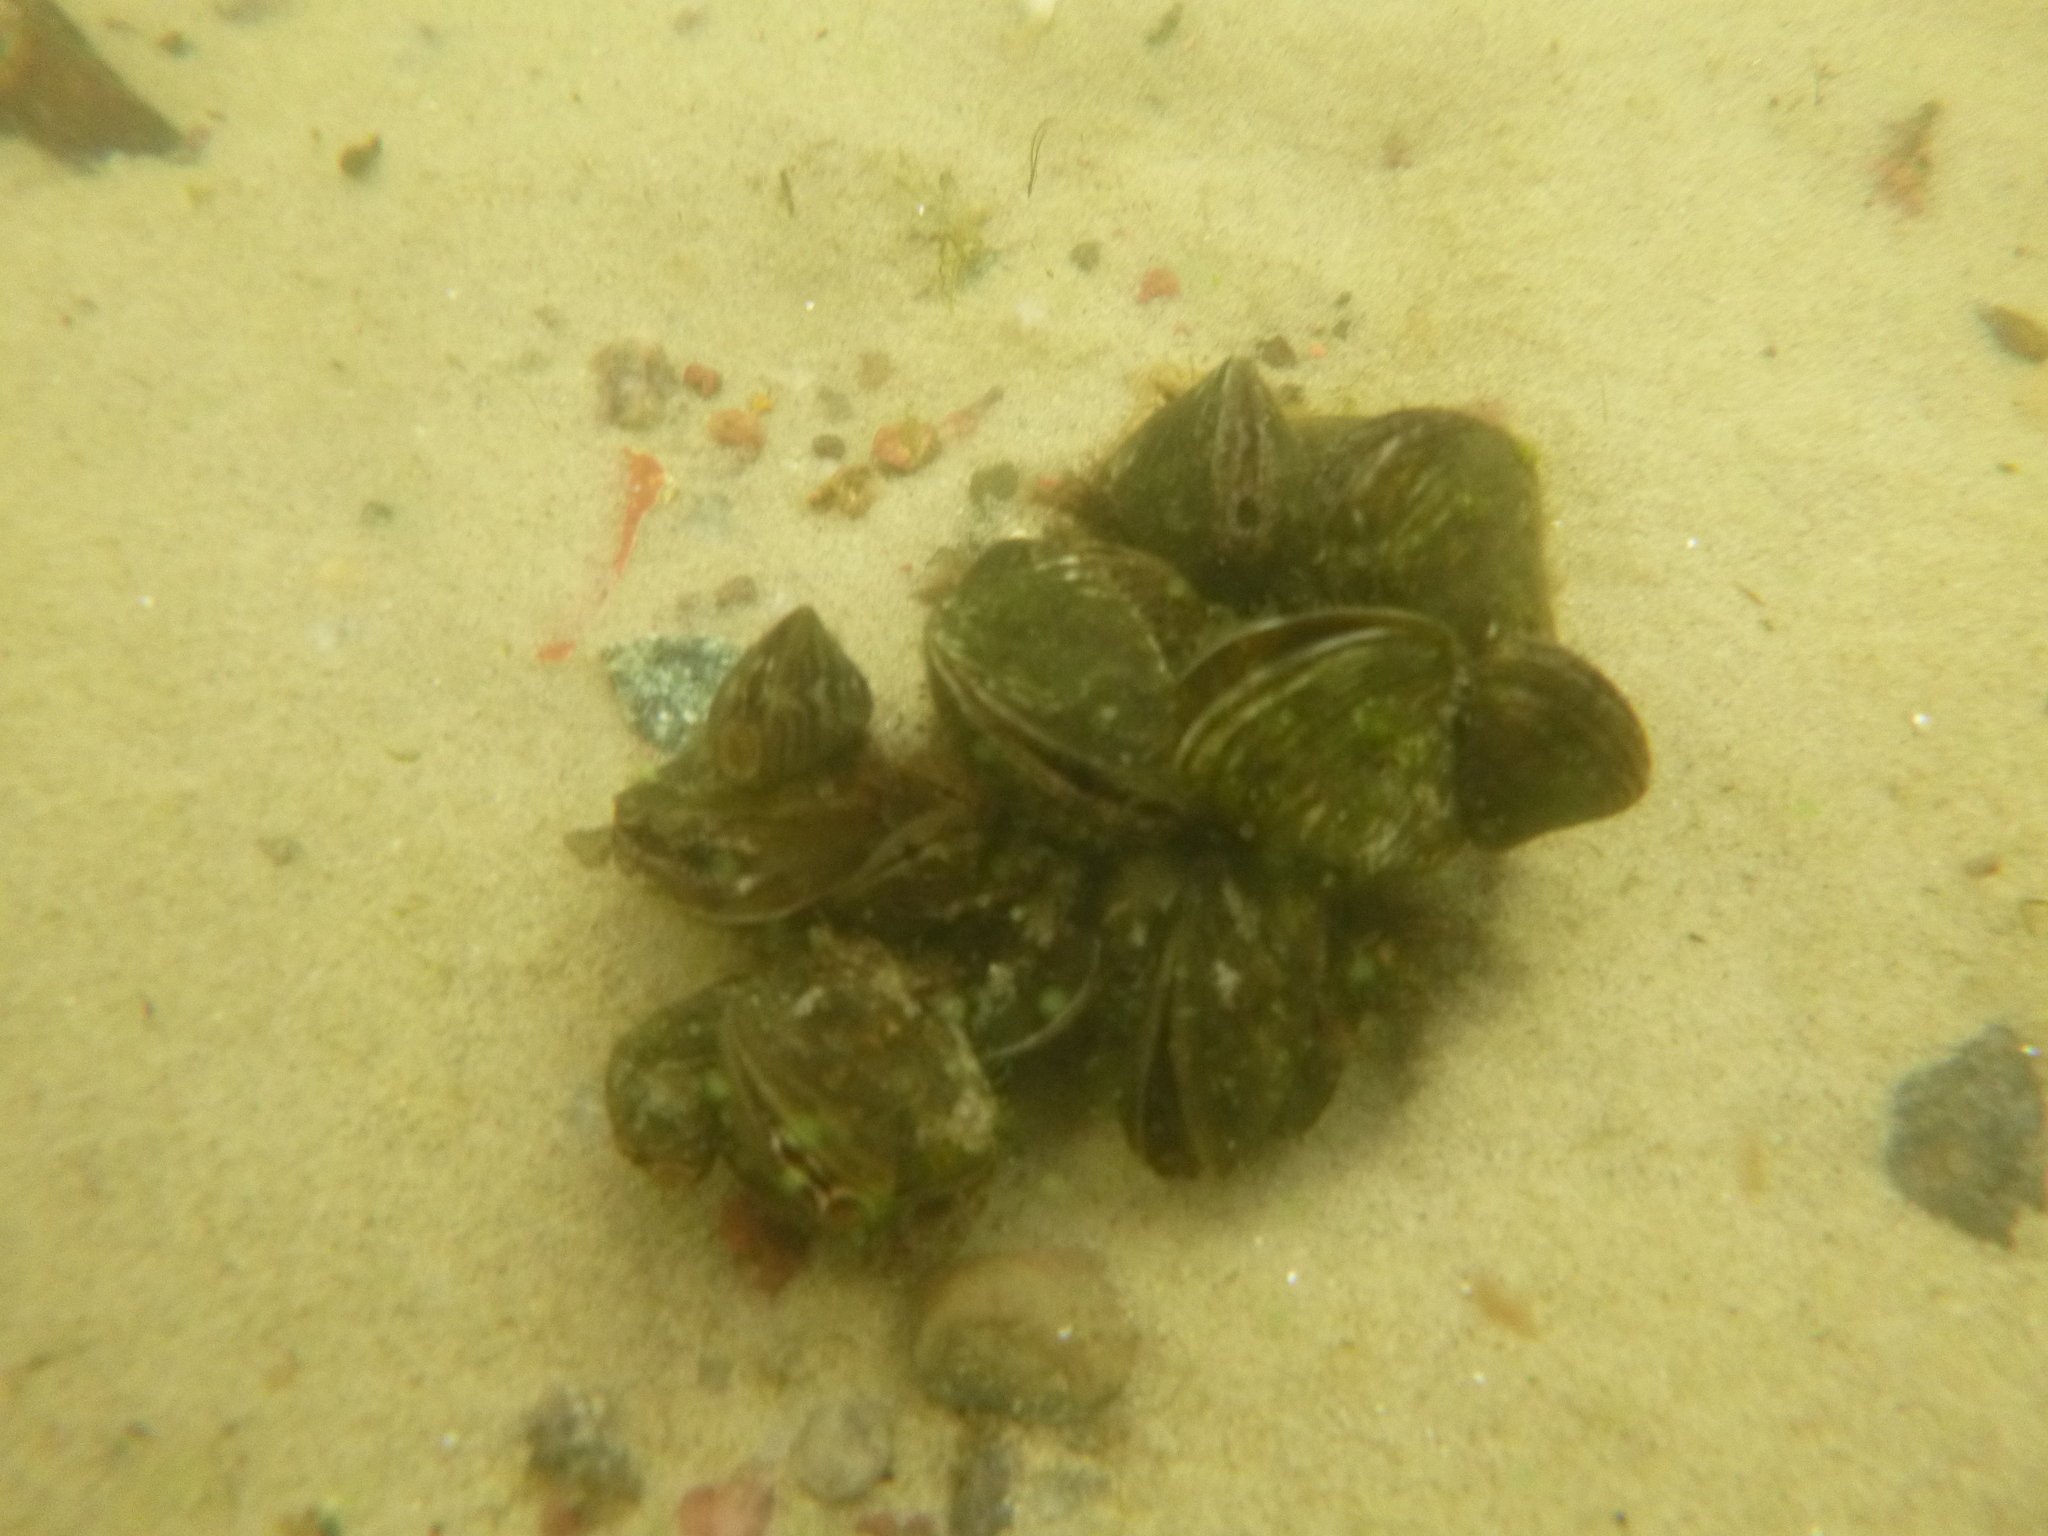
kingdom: Animalia
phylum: Mollusca
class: Bivalvia
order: Myida
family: Dreissenidae
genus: Dreissena
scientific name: Dreissena bugensis
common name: Quagga mussel
